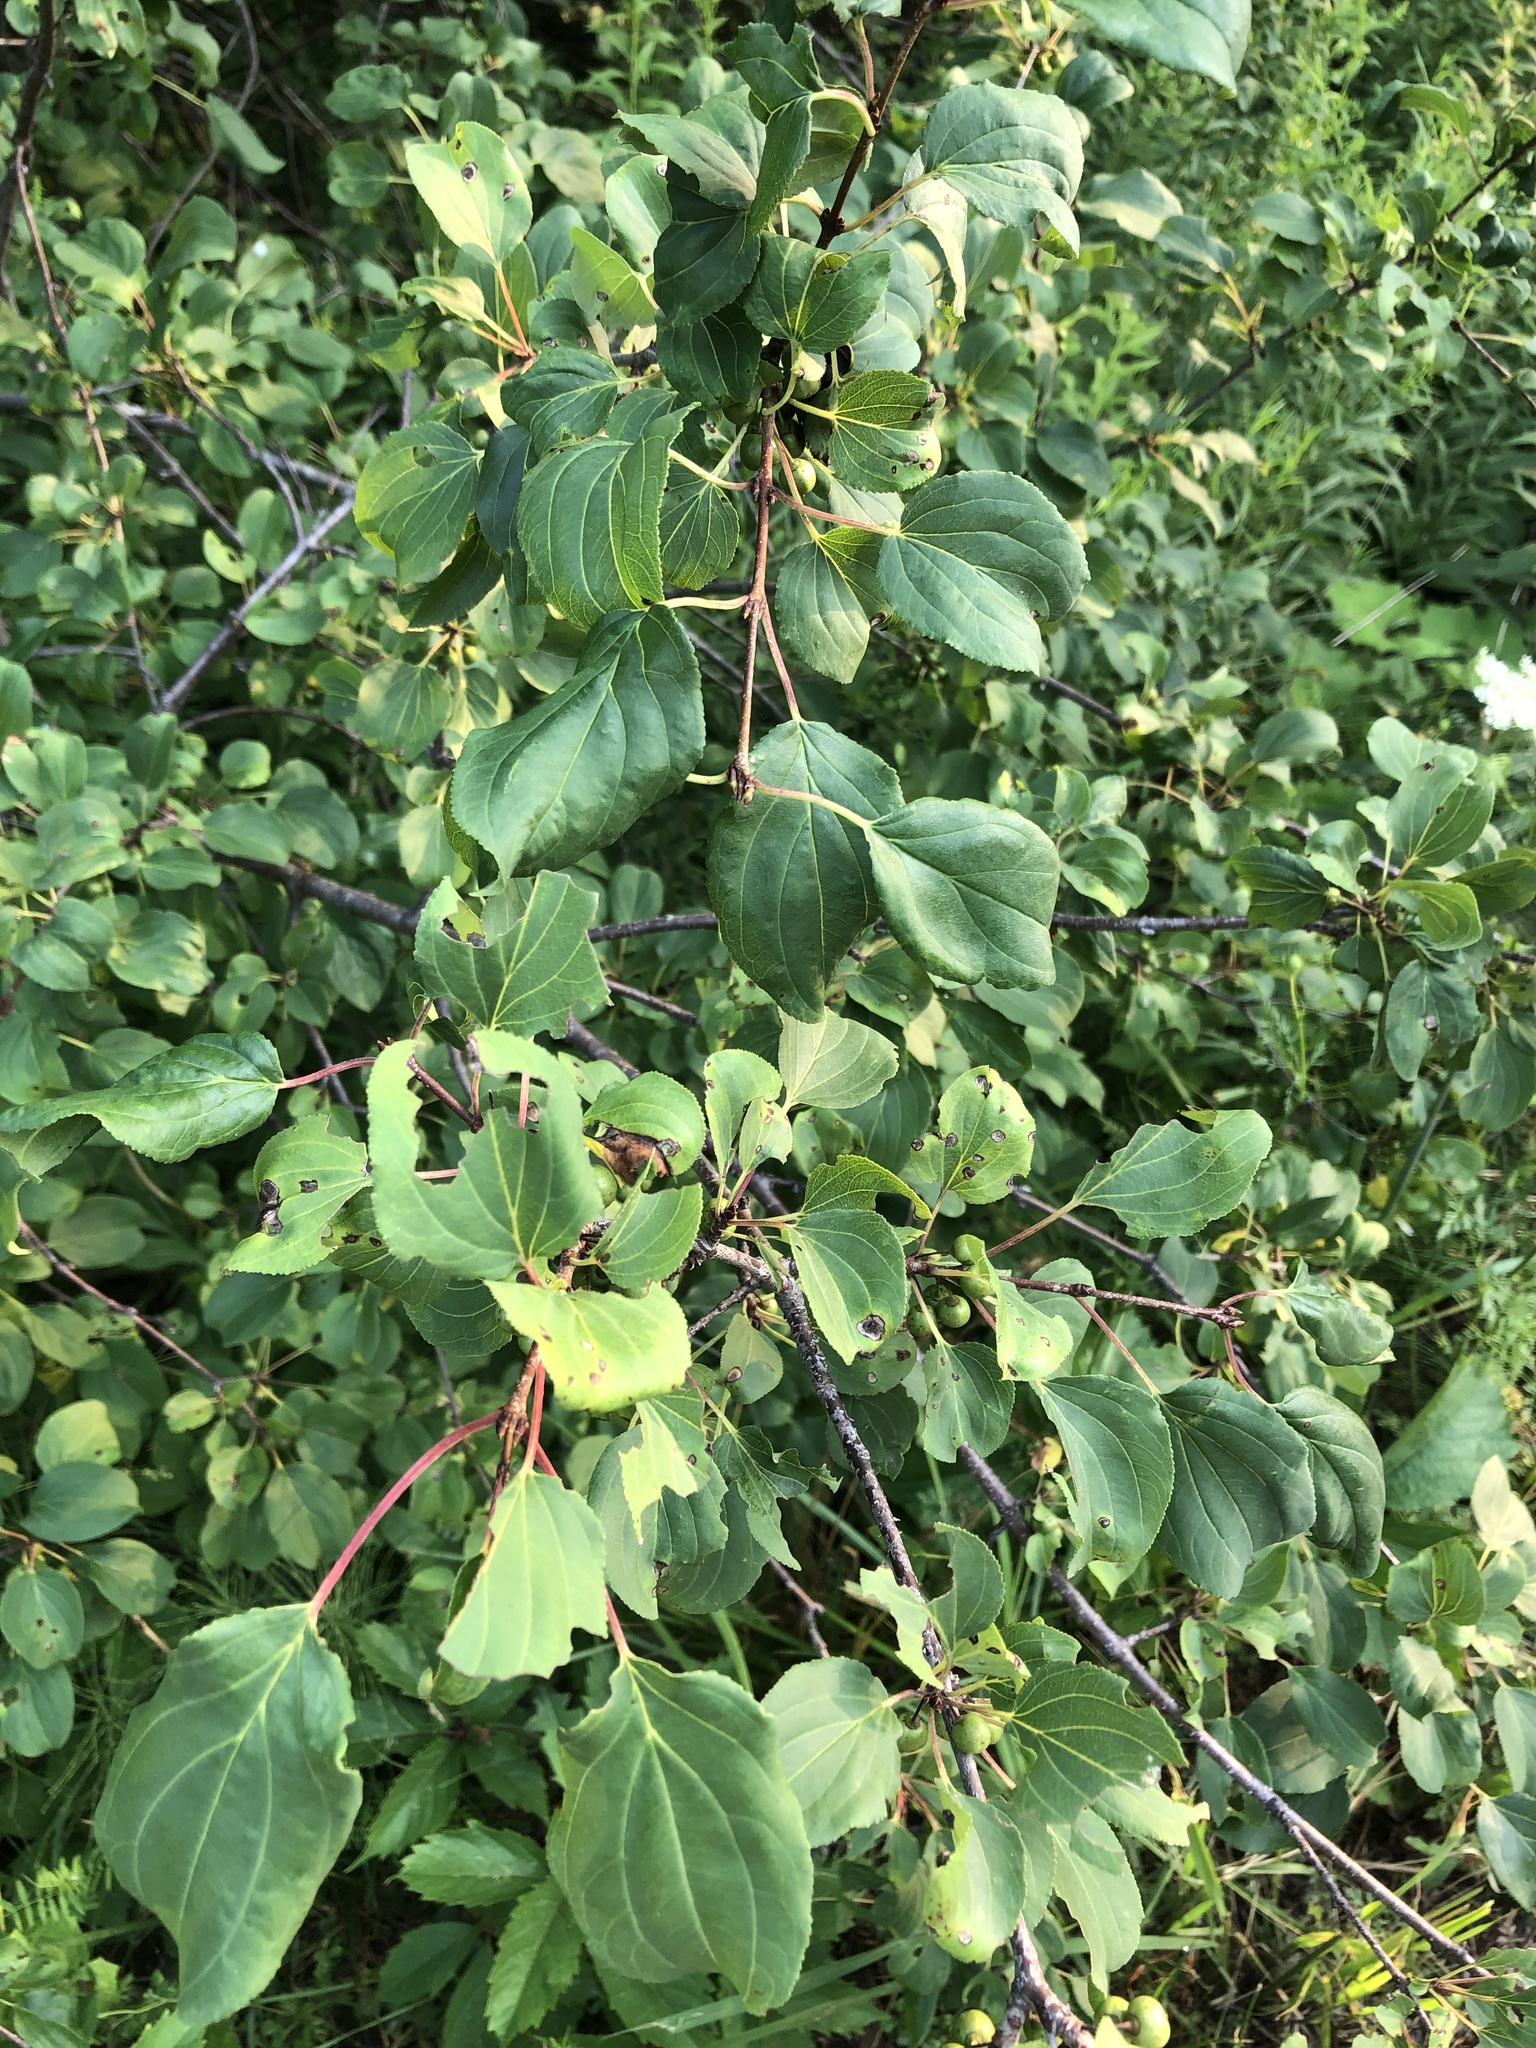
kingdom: Plantae
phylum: Tracheophyta
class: Magnoliopsida
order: Rosales
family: Rhamnaceae
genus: Rhamnus
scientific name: Rhamnus cathartica
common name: Common buckthorn
